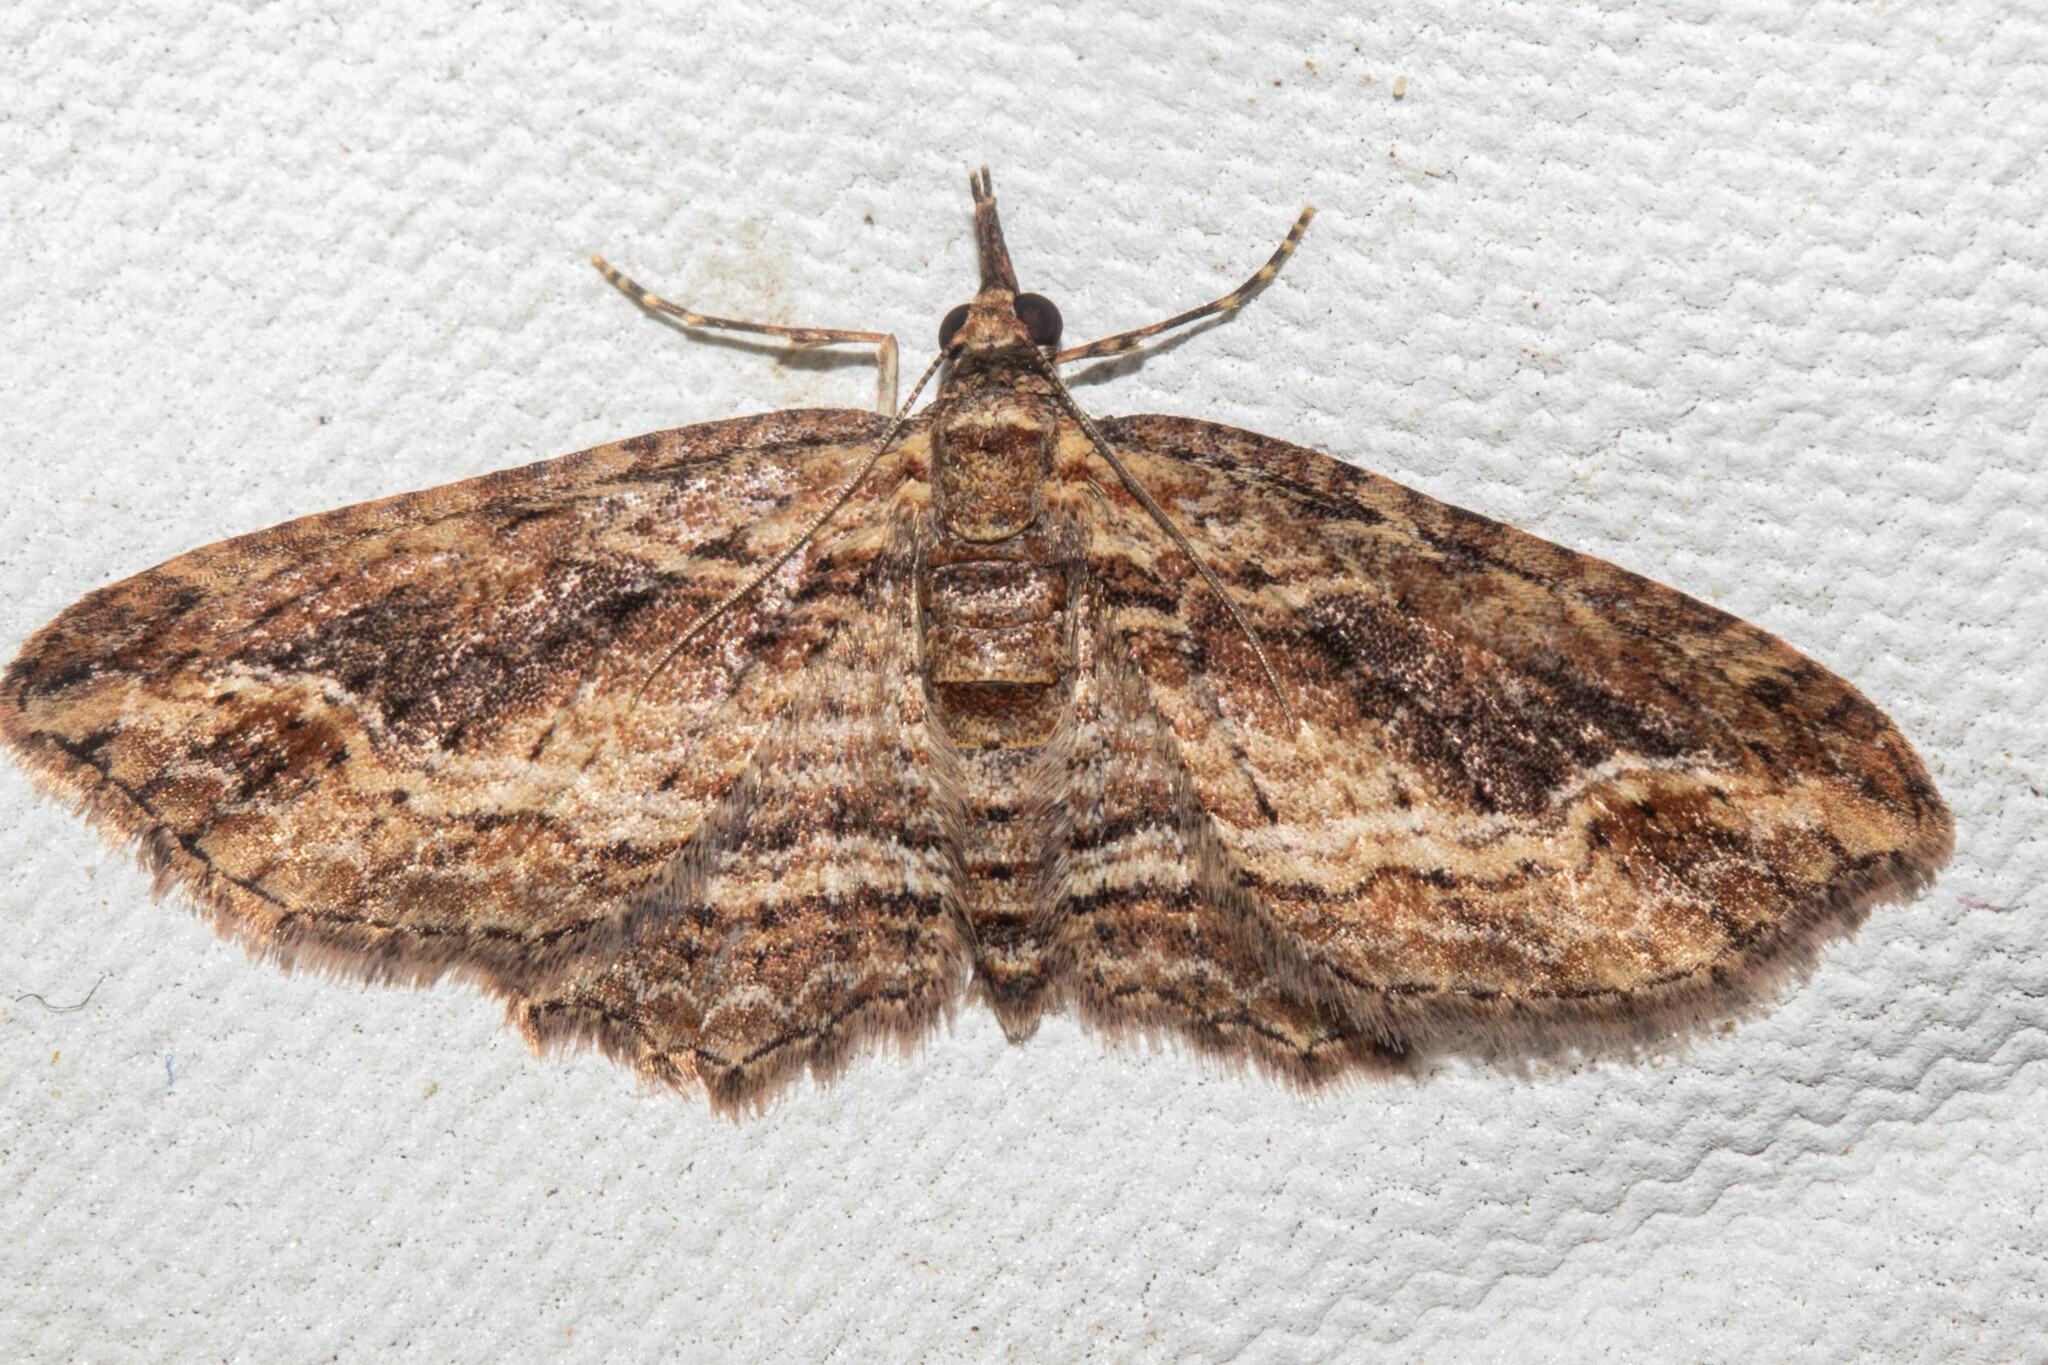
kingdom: Animalia
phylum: Arthropoda
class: Insecta
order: Lepidoptera
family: Geometridae
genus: Chloroclystis
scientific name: Chloroclystis filata
